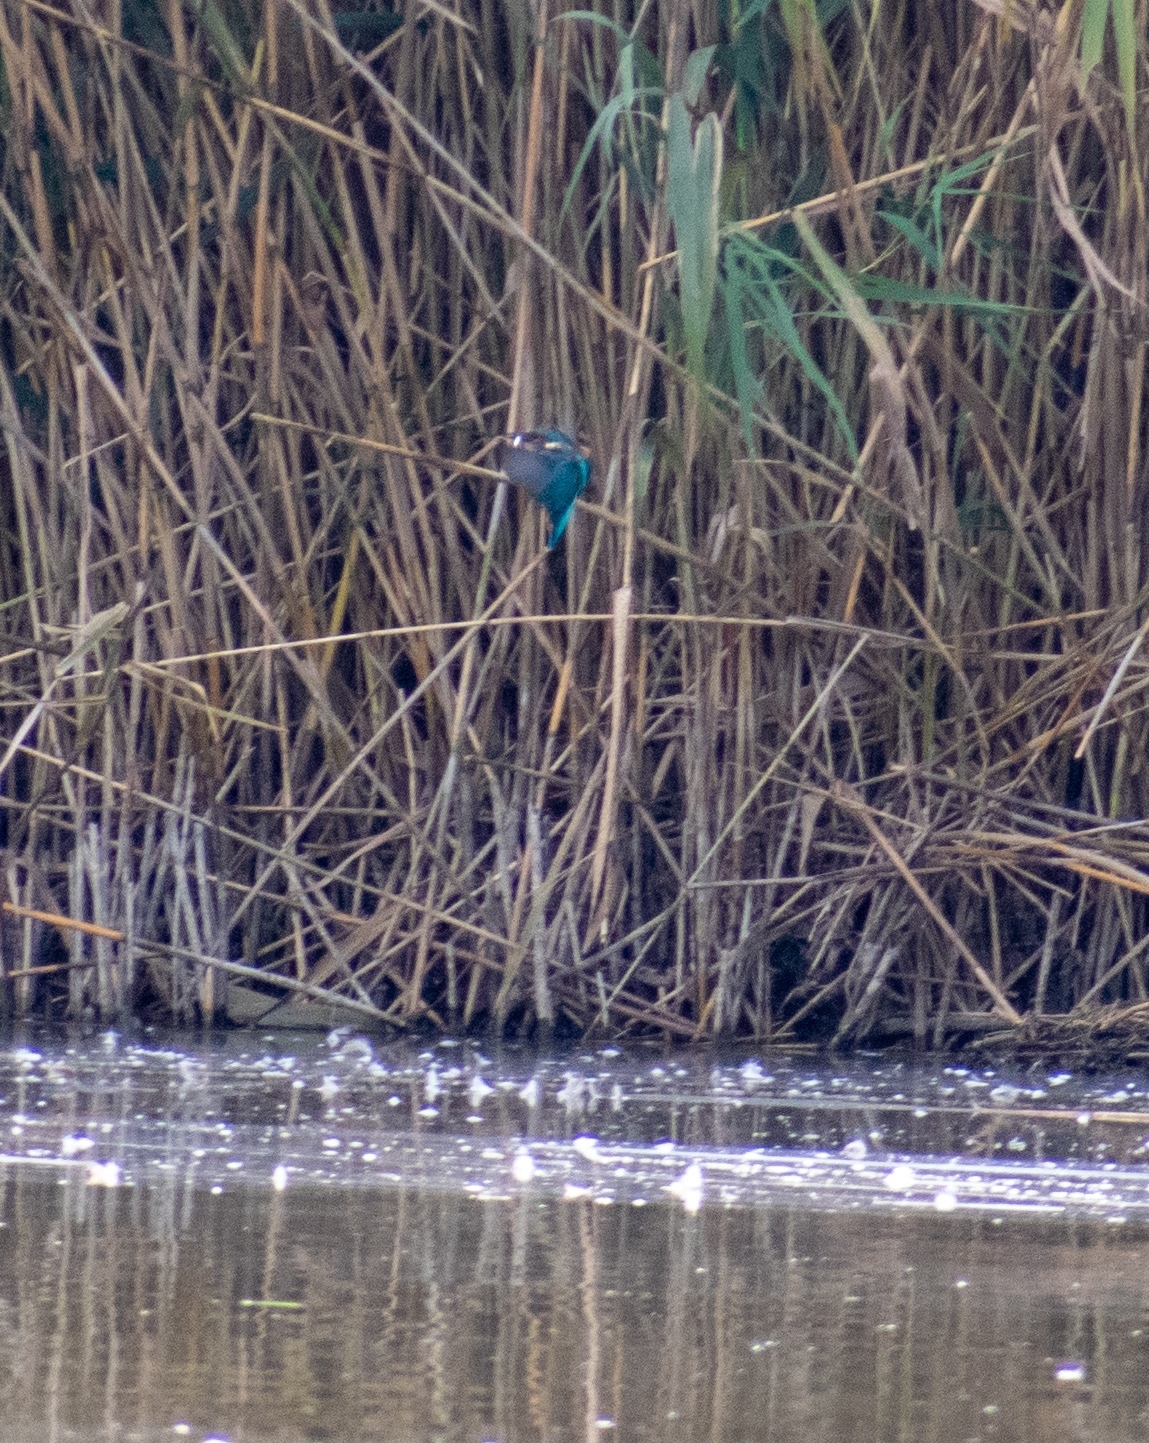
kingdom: Animalia
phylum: Chordata
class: Aves
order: Coraciiformes
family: Alcedinidae
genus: Alcedo
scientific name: Alcedo atthis
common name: Common kingfisher
